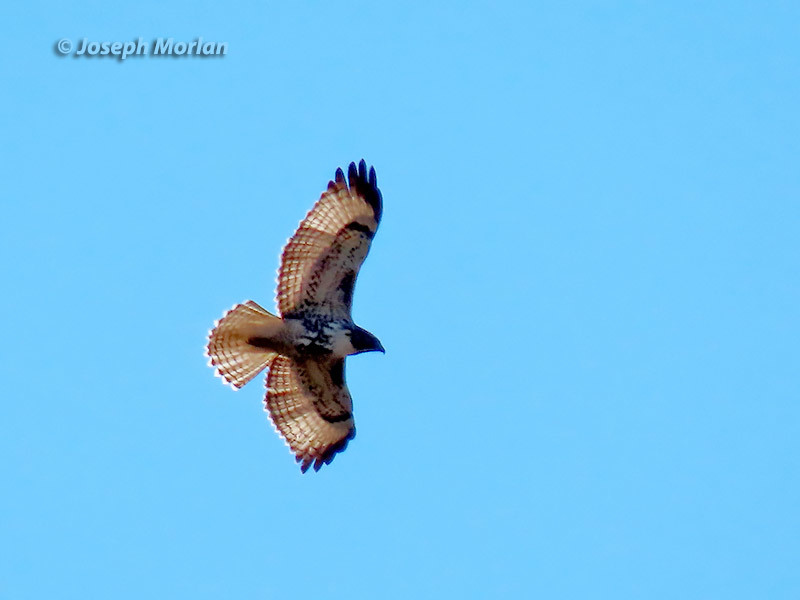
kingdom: Animalia
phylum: Chordata
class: Aves
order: Accipitriformes
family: Accipitridae
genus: Buteo
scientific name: Buteo jamaicensis
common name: Red-tailed hawk
